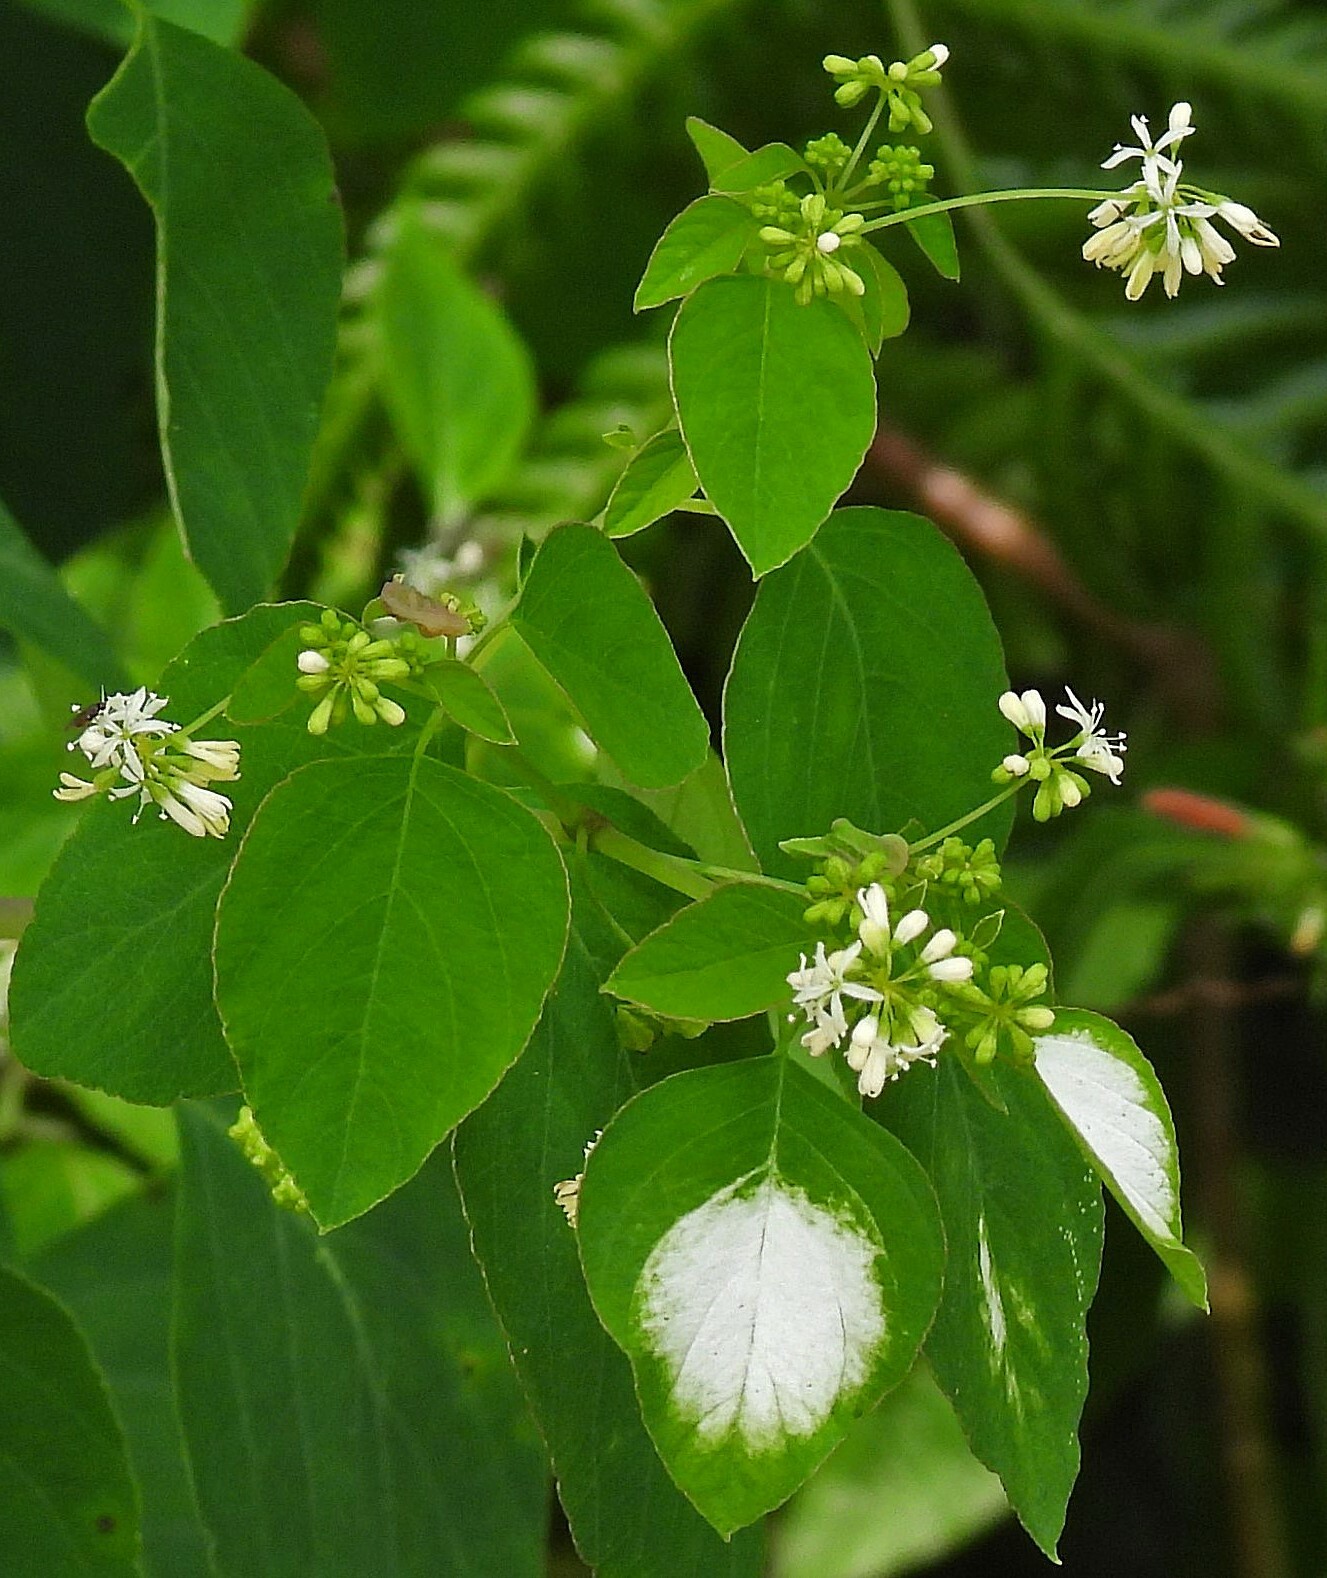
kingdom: Plantae
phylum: Tracheophyta
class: Magnoliopsida
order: Caryophyllales
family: Nyctaginaceae
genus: Colignonia
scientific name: Colignonia glomerata
